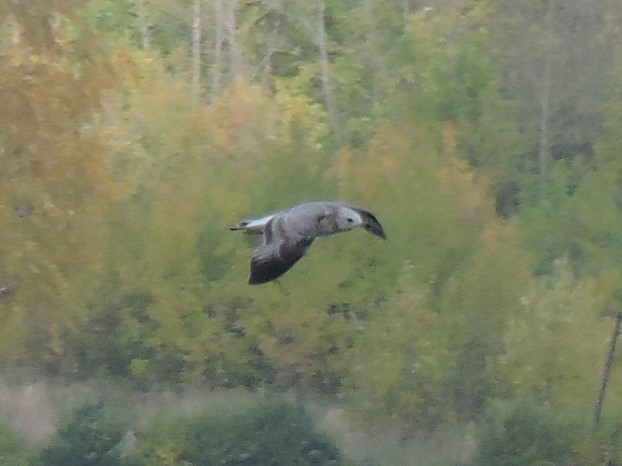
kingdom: Animalia
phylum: Chordata
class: Aves
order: Charadriiformes
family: Laridae
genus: Larus
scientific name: Larus canus
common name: Mew gull
